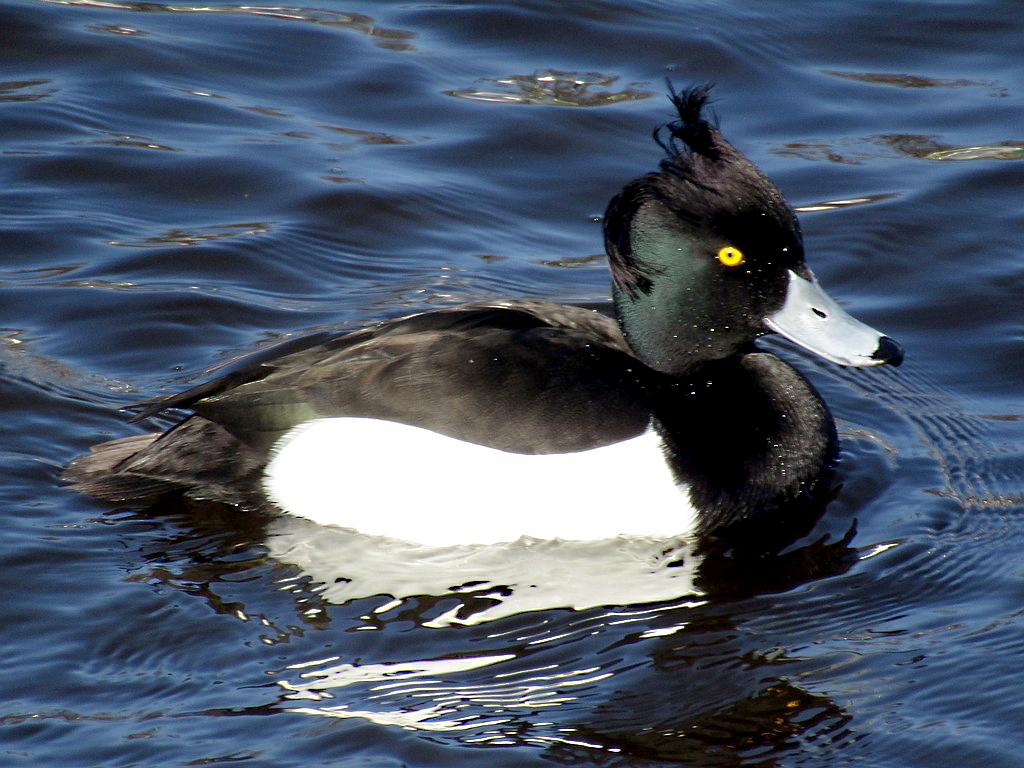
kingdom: Animalia
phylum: Chordata
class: Aves
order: Anseriformes
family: Anatidae
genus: Aythya
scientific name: Aythya fuligula
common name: Tufted duck
